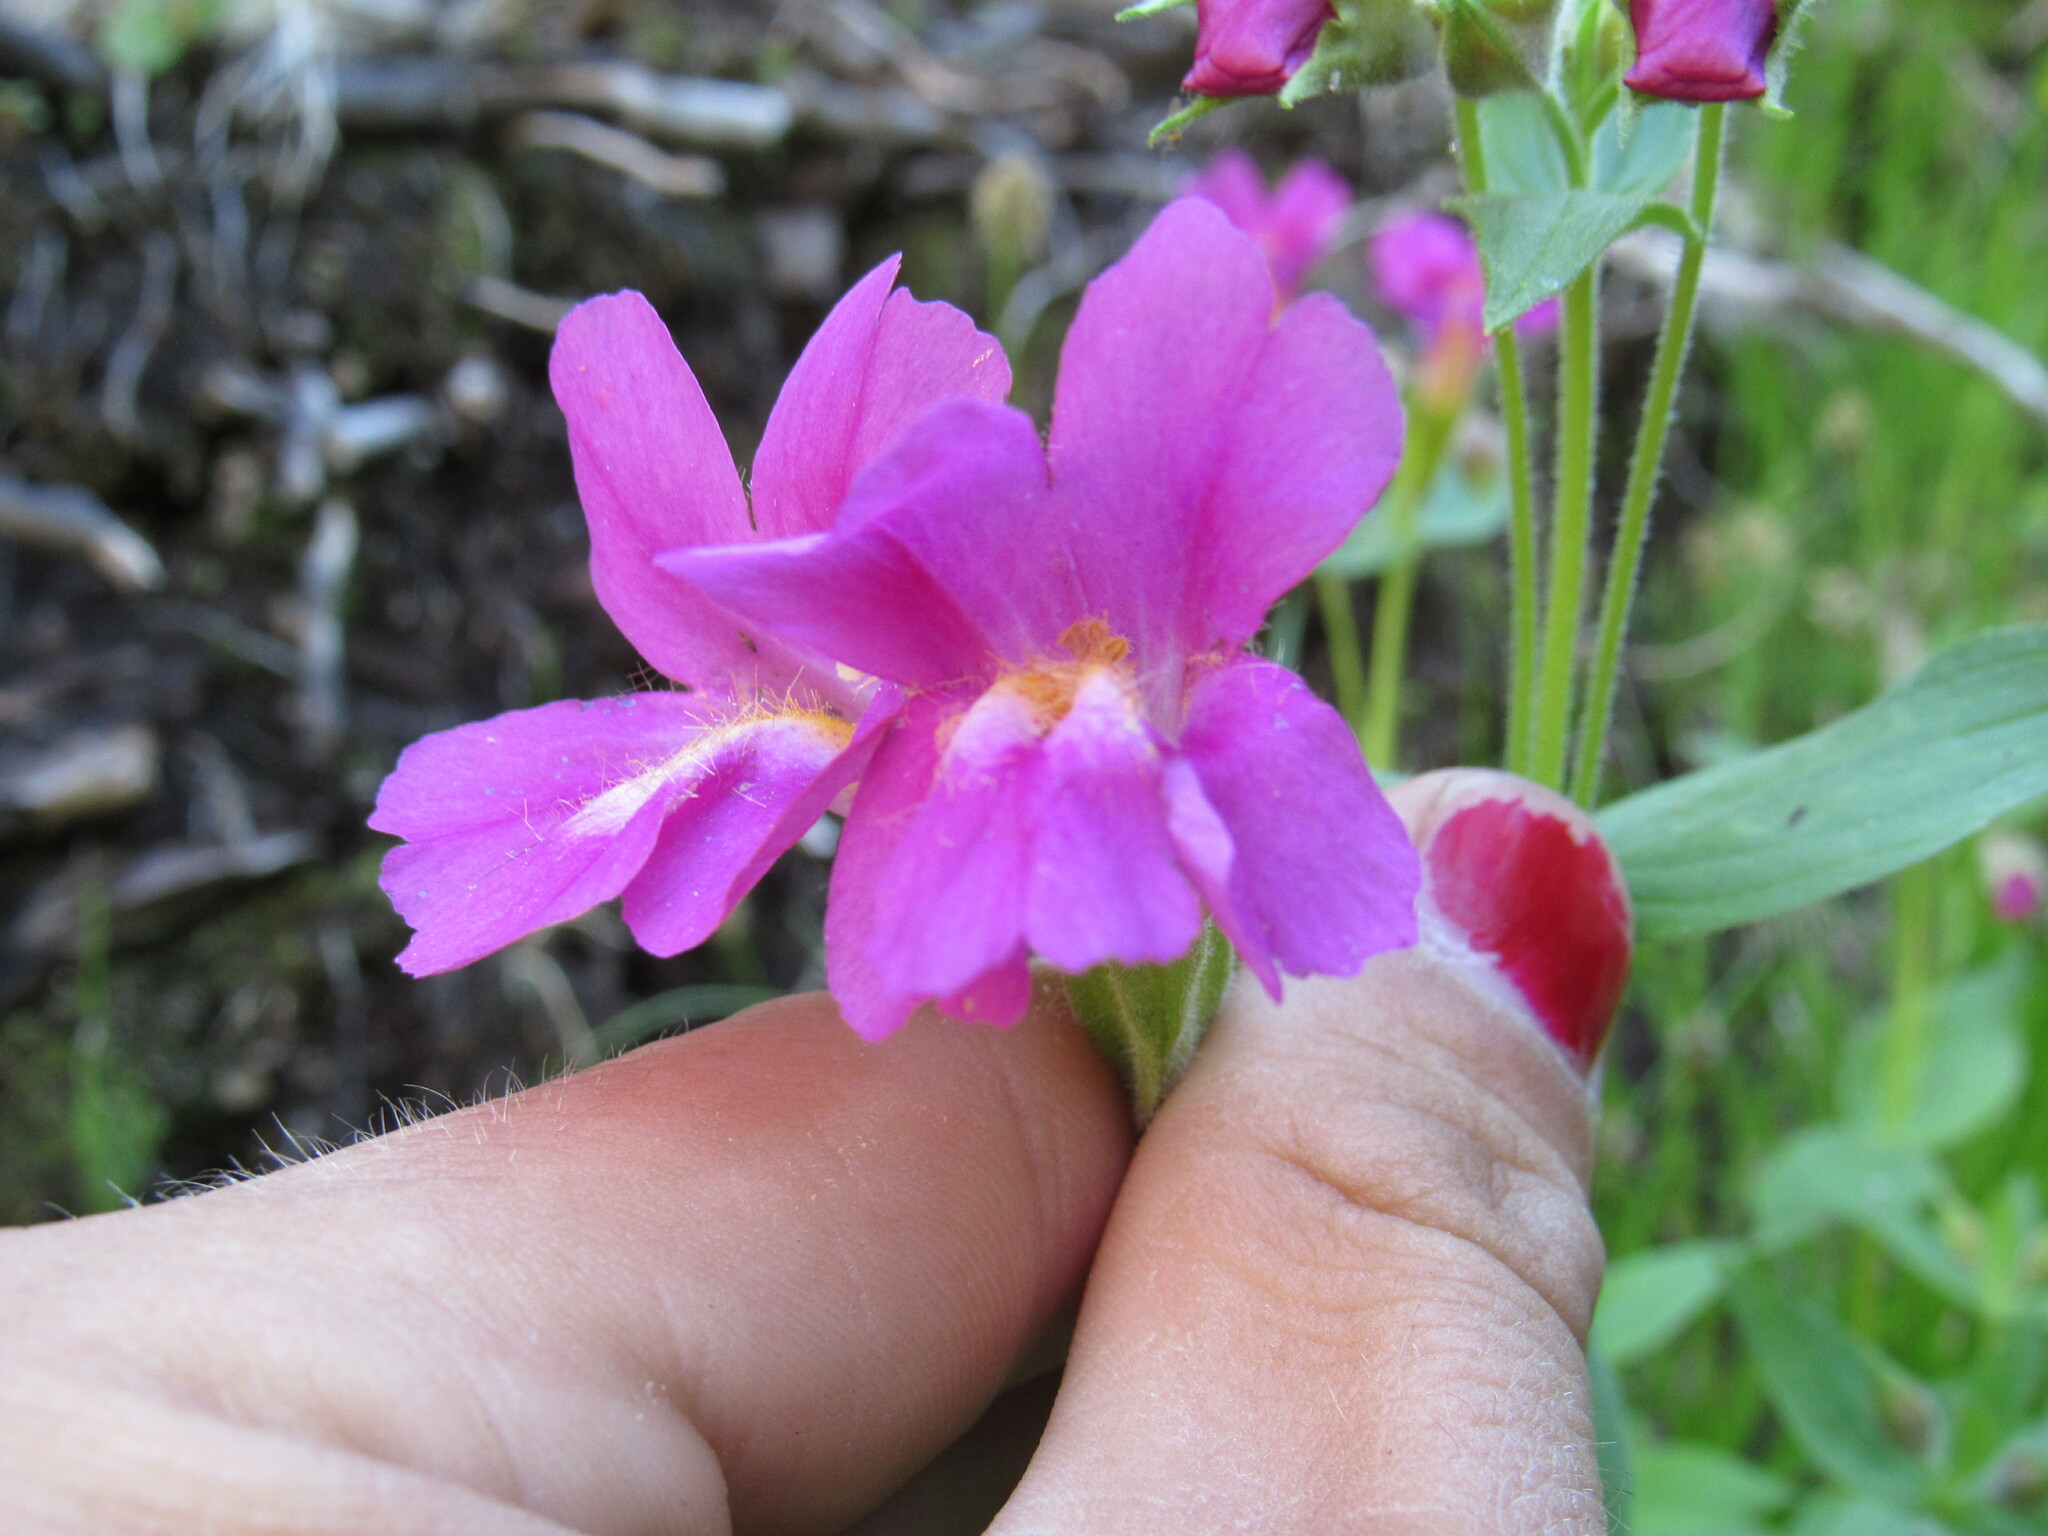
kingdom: Plantae
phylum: Tracheophyta
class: Magnoliopsida
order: Lamiales
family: Phrymaceae
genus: Erythranthe
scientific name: Erythranthe lewisii
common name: Lewis's monkey-flower
